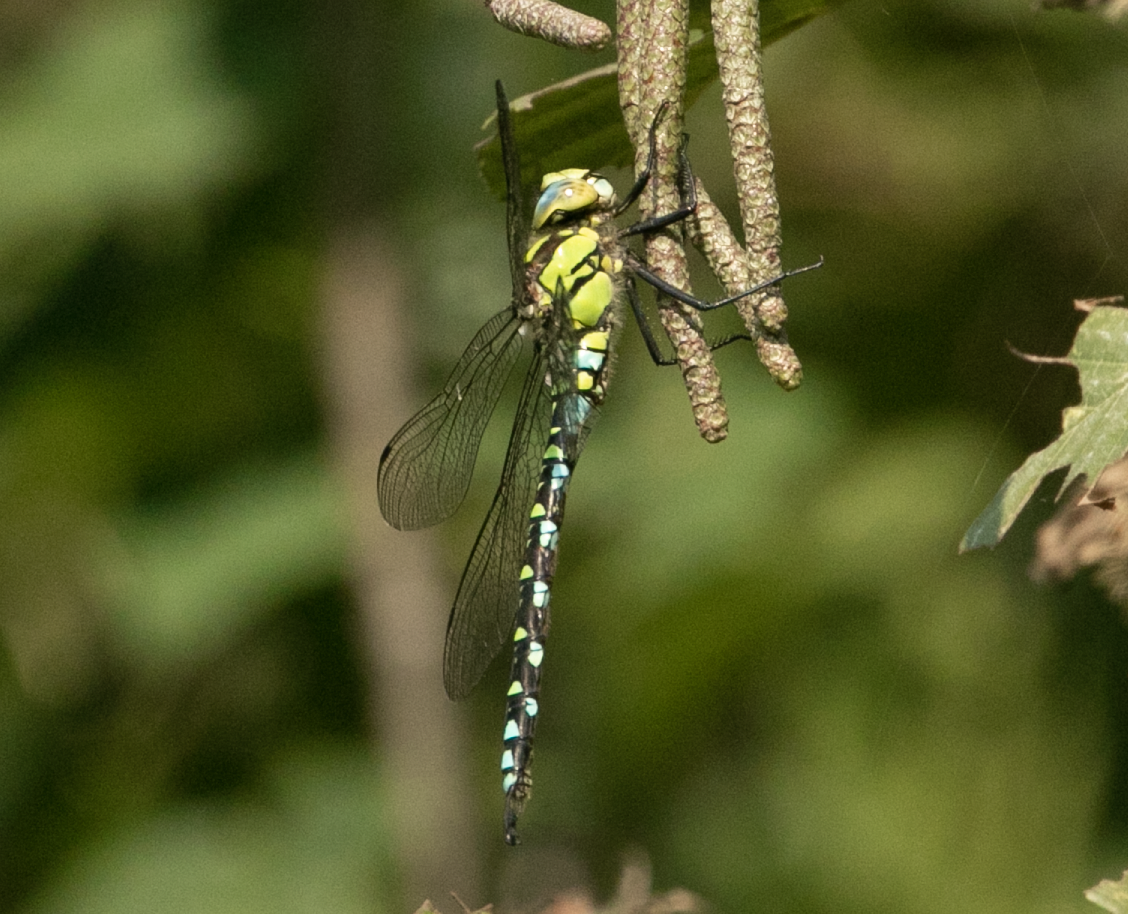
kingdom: Animalia
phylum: Arthropoda
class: Insecta
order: Odonata
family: Aeshnidae
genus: Aeshna
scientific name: Aeshna cyanea
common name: Southern hawker
